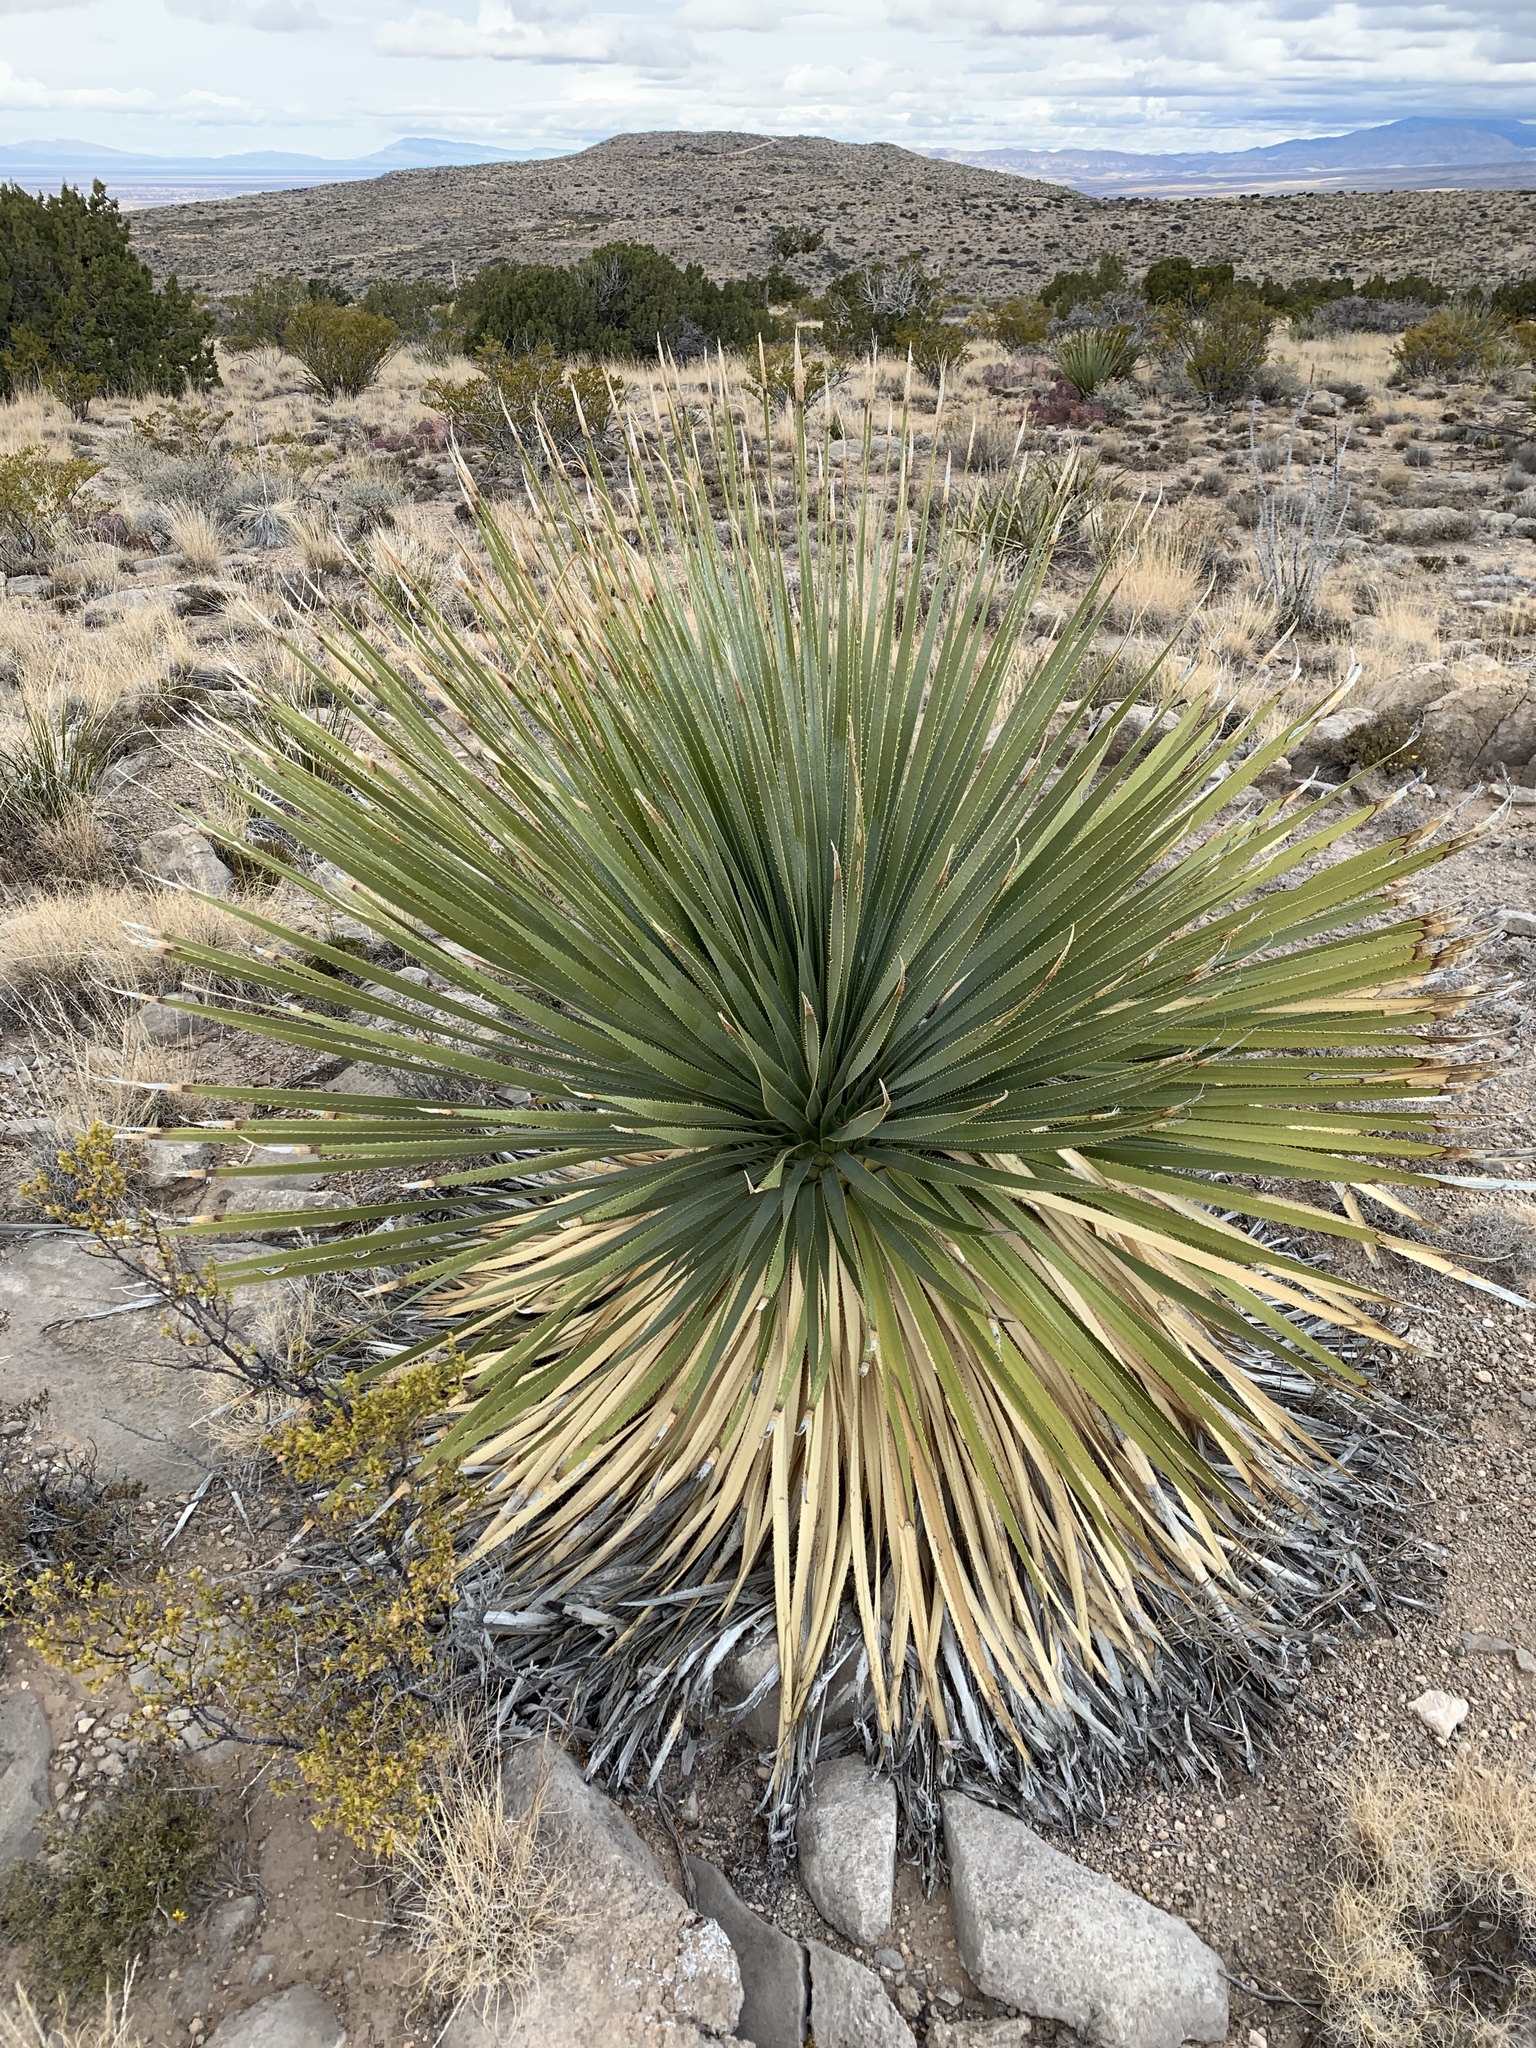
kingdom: Plantae
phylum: Tracheophyta
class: Liliopsida
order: Asparagales
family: Asparagaceae
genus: Dasylirion
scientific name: Dasylirion wheeleri
